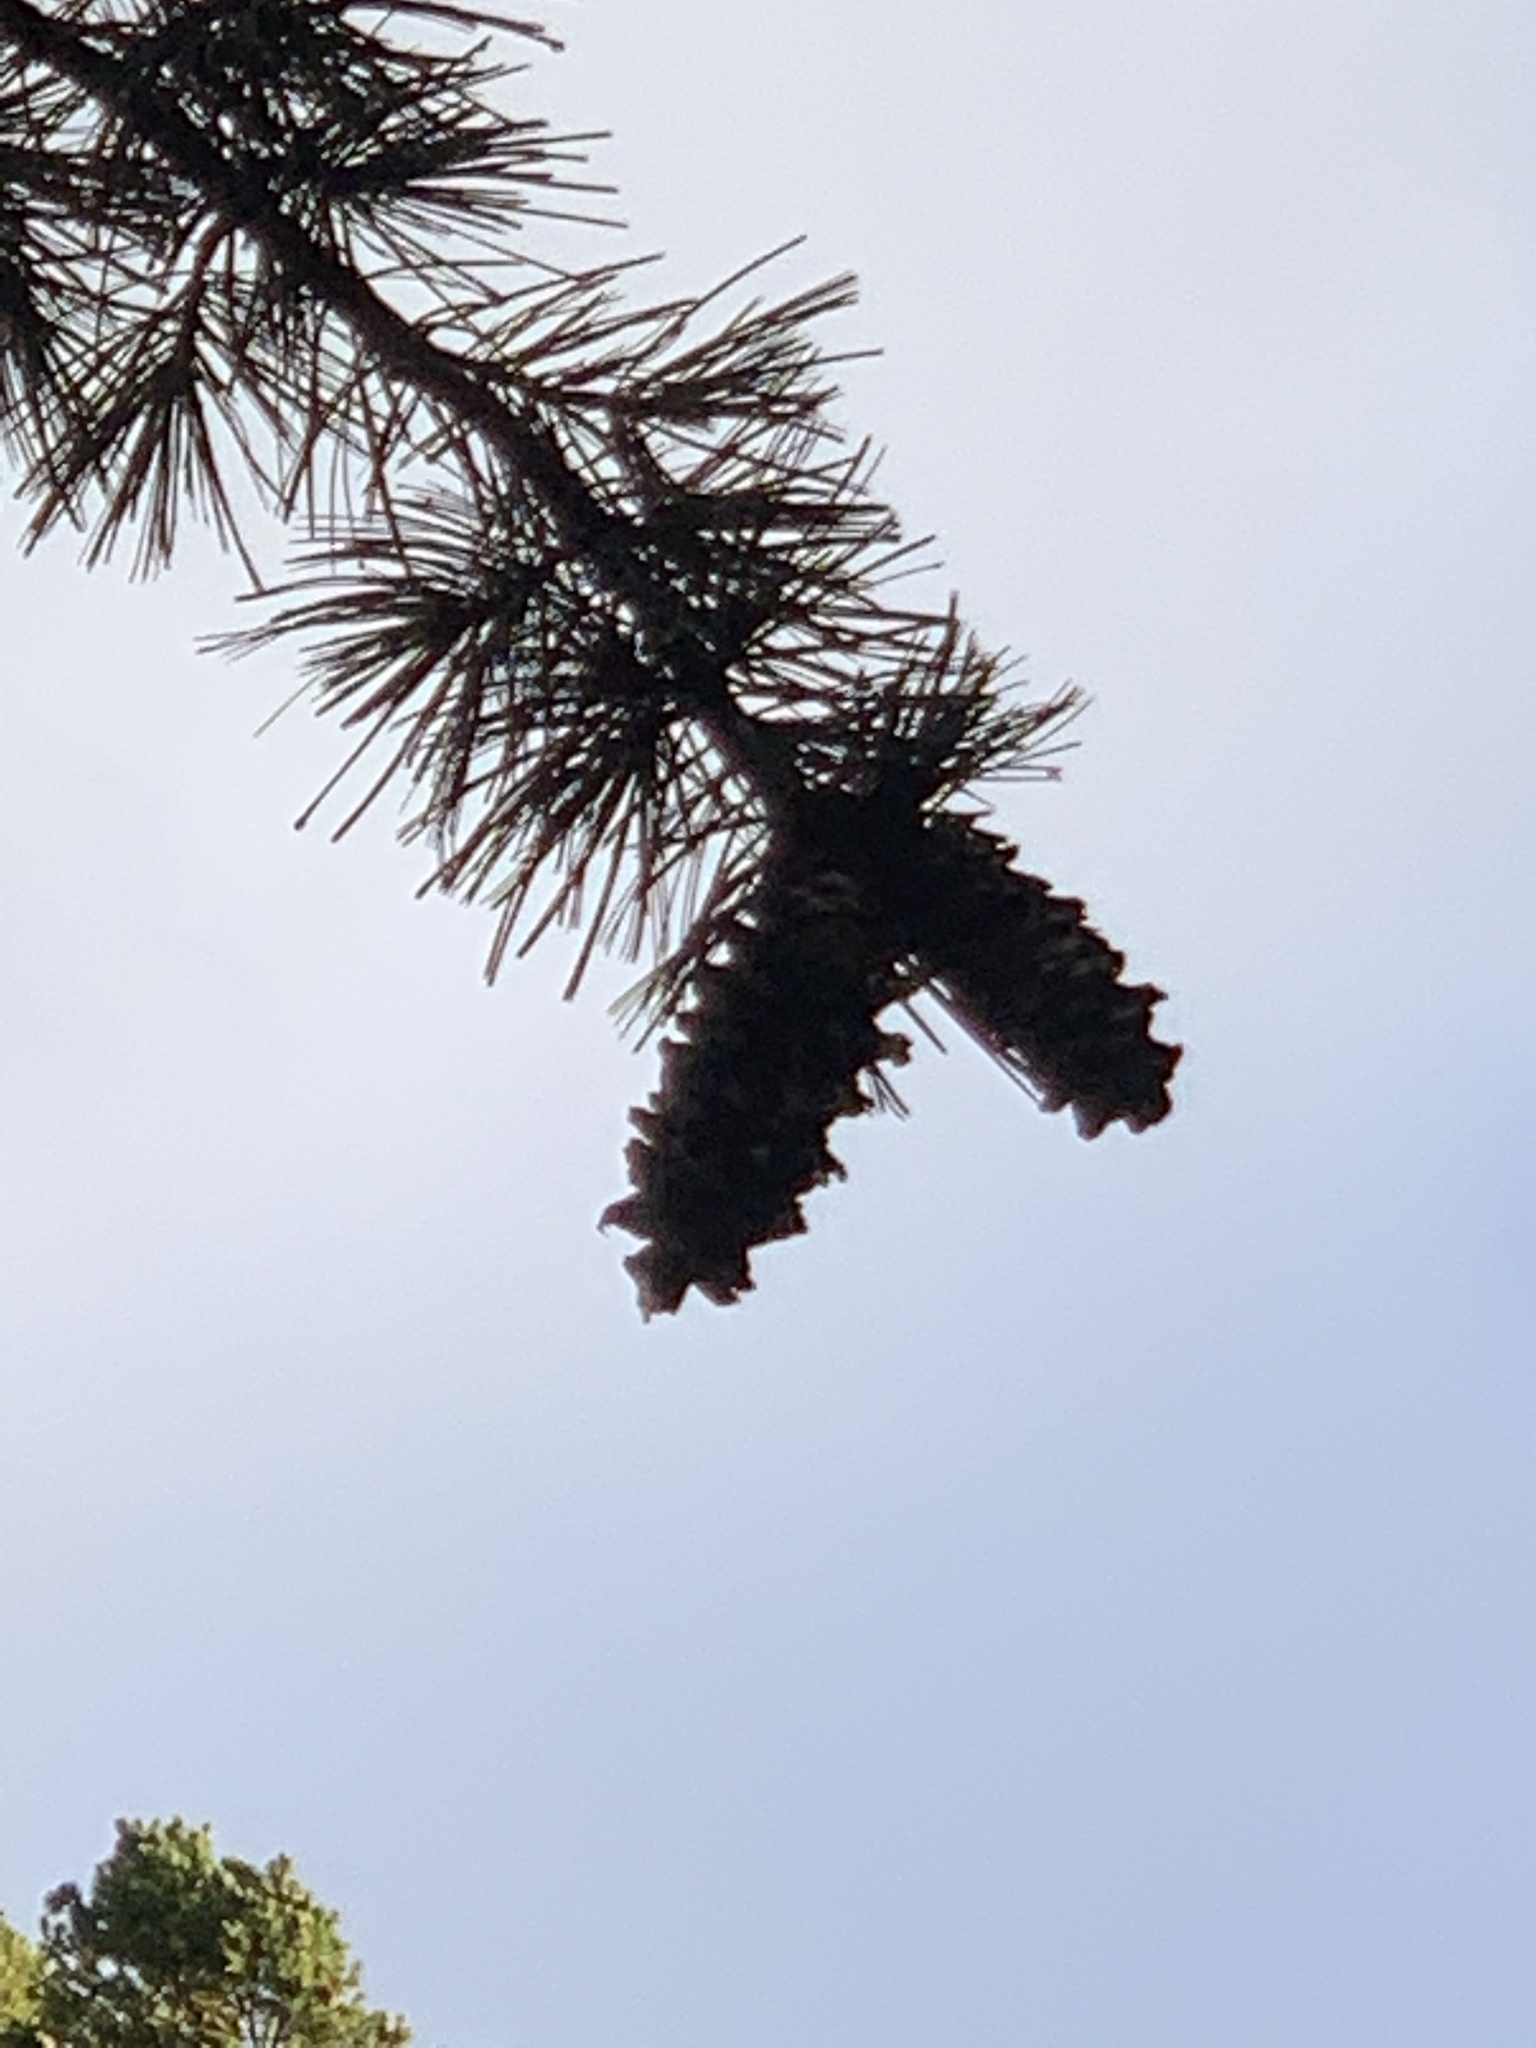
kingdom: Plantae
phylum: Tracheophyta
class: Pinopsida
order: Pinales
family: Pinaceae
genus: Pinus
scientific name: Pinus strobiformis
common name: Southwestern white pine
